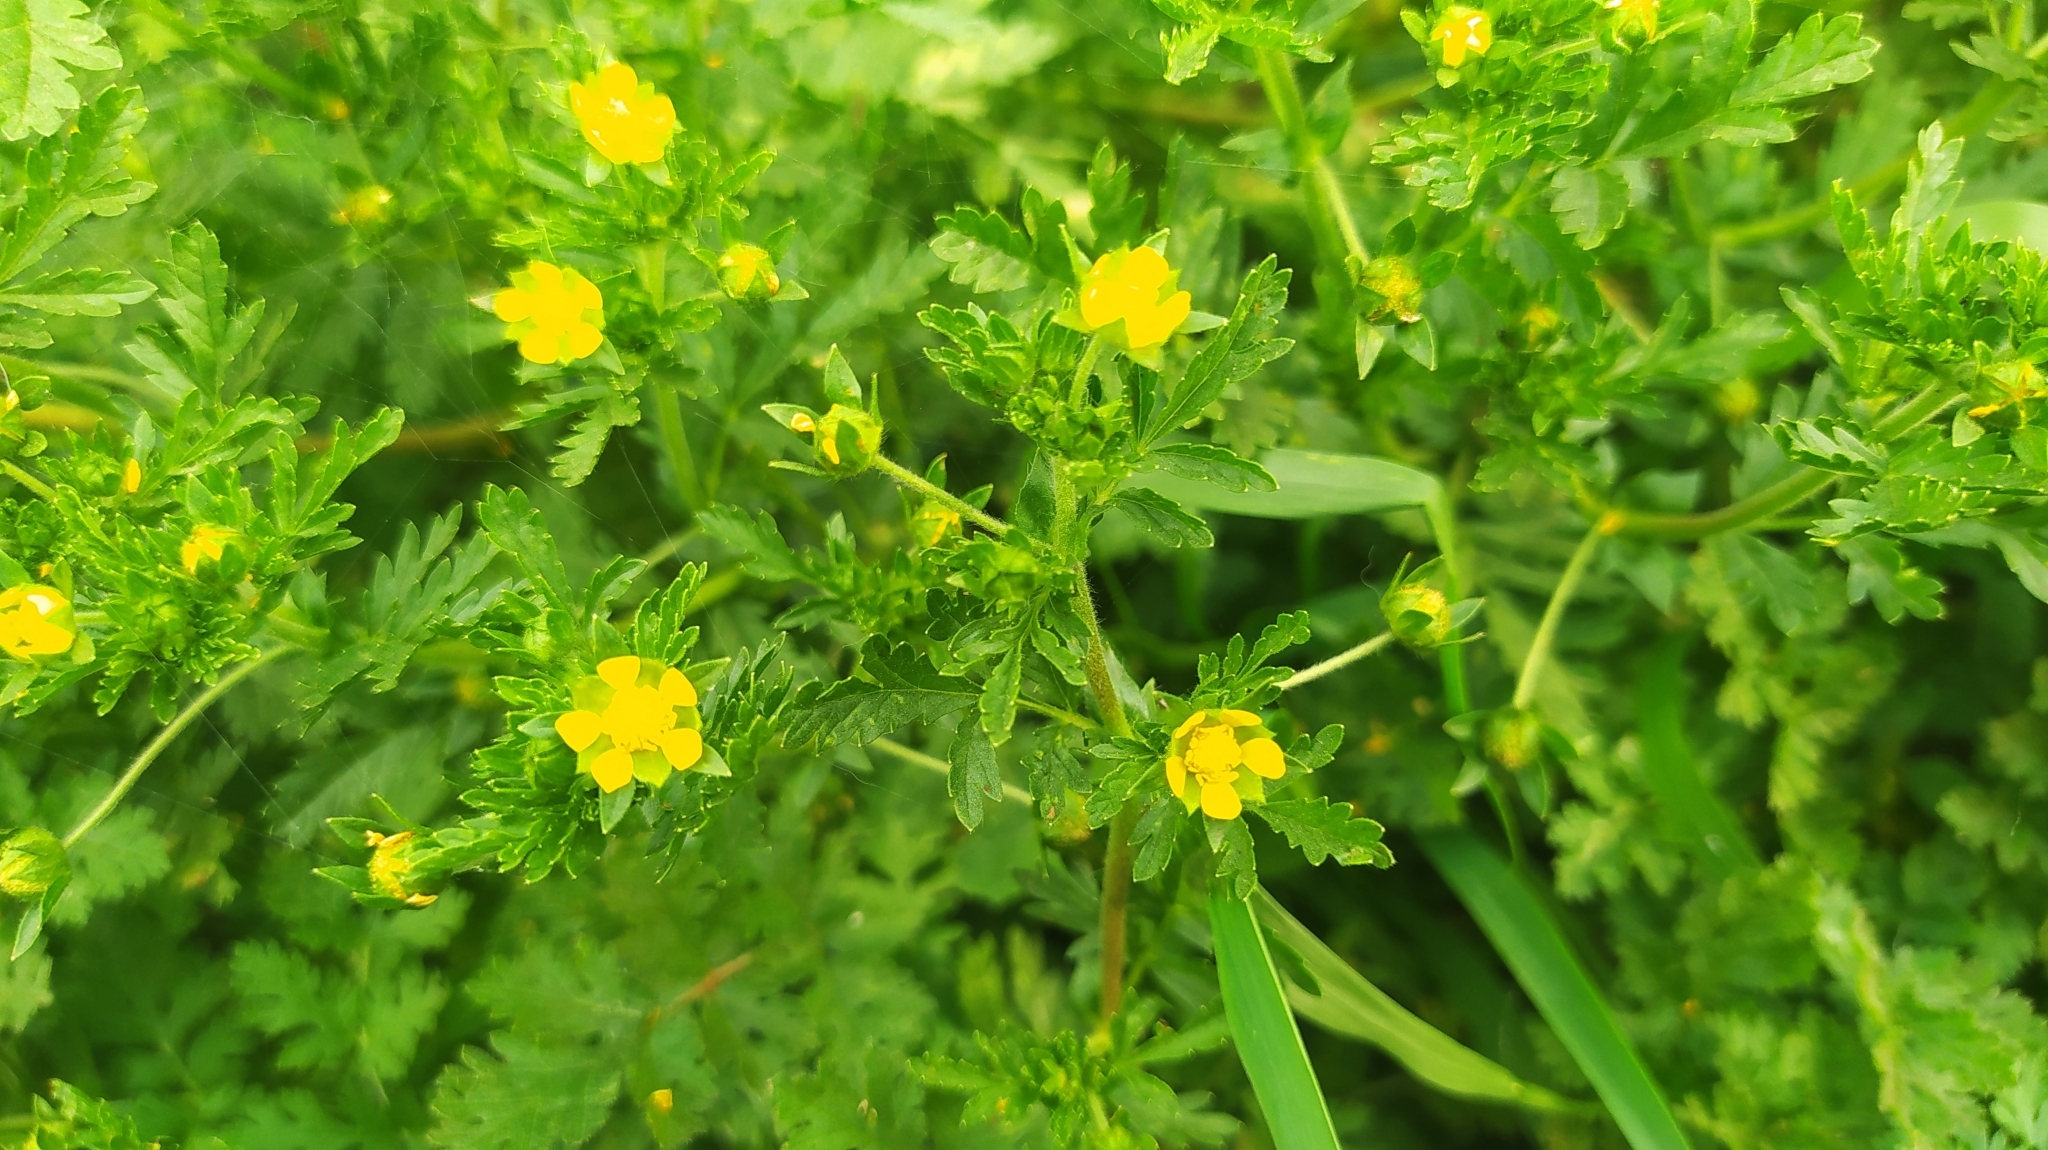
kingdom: Plantae
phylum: Tracheophyta
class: Magnoliopsida
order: Rosales
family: Rosaceae
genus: Potentilla
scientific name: Potentilla supina
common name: Prostrate cinquefoil
